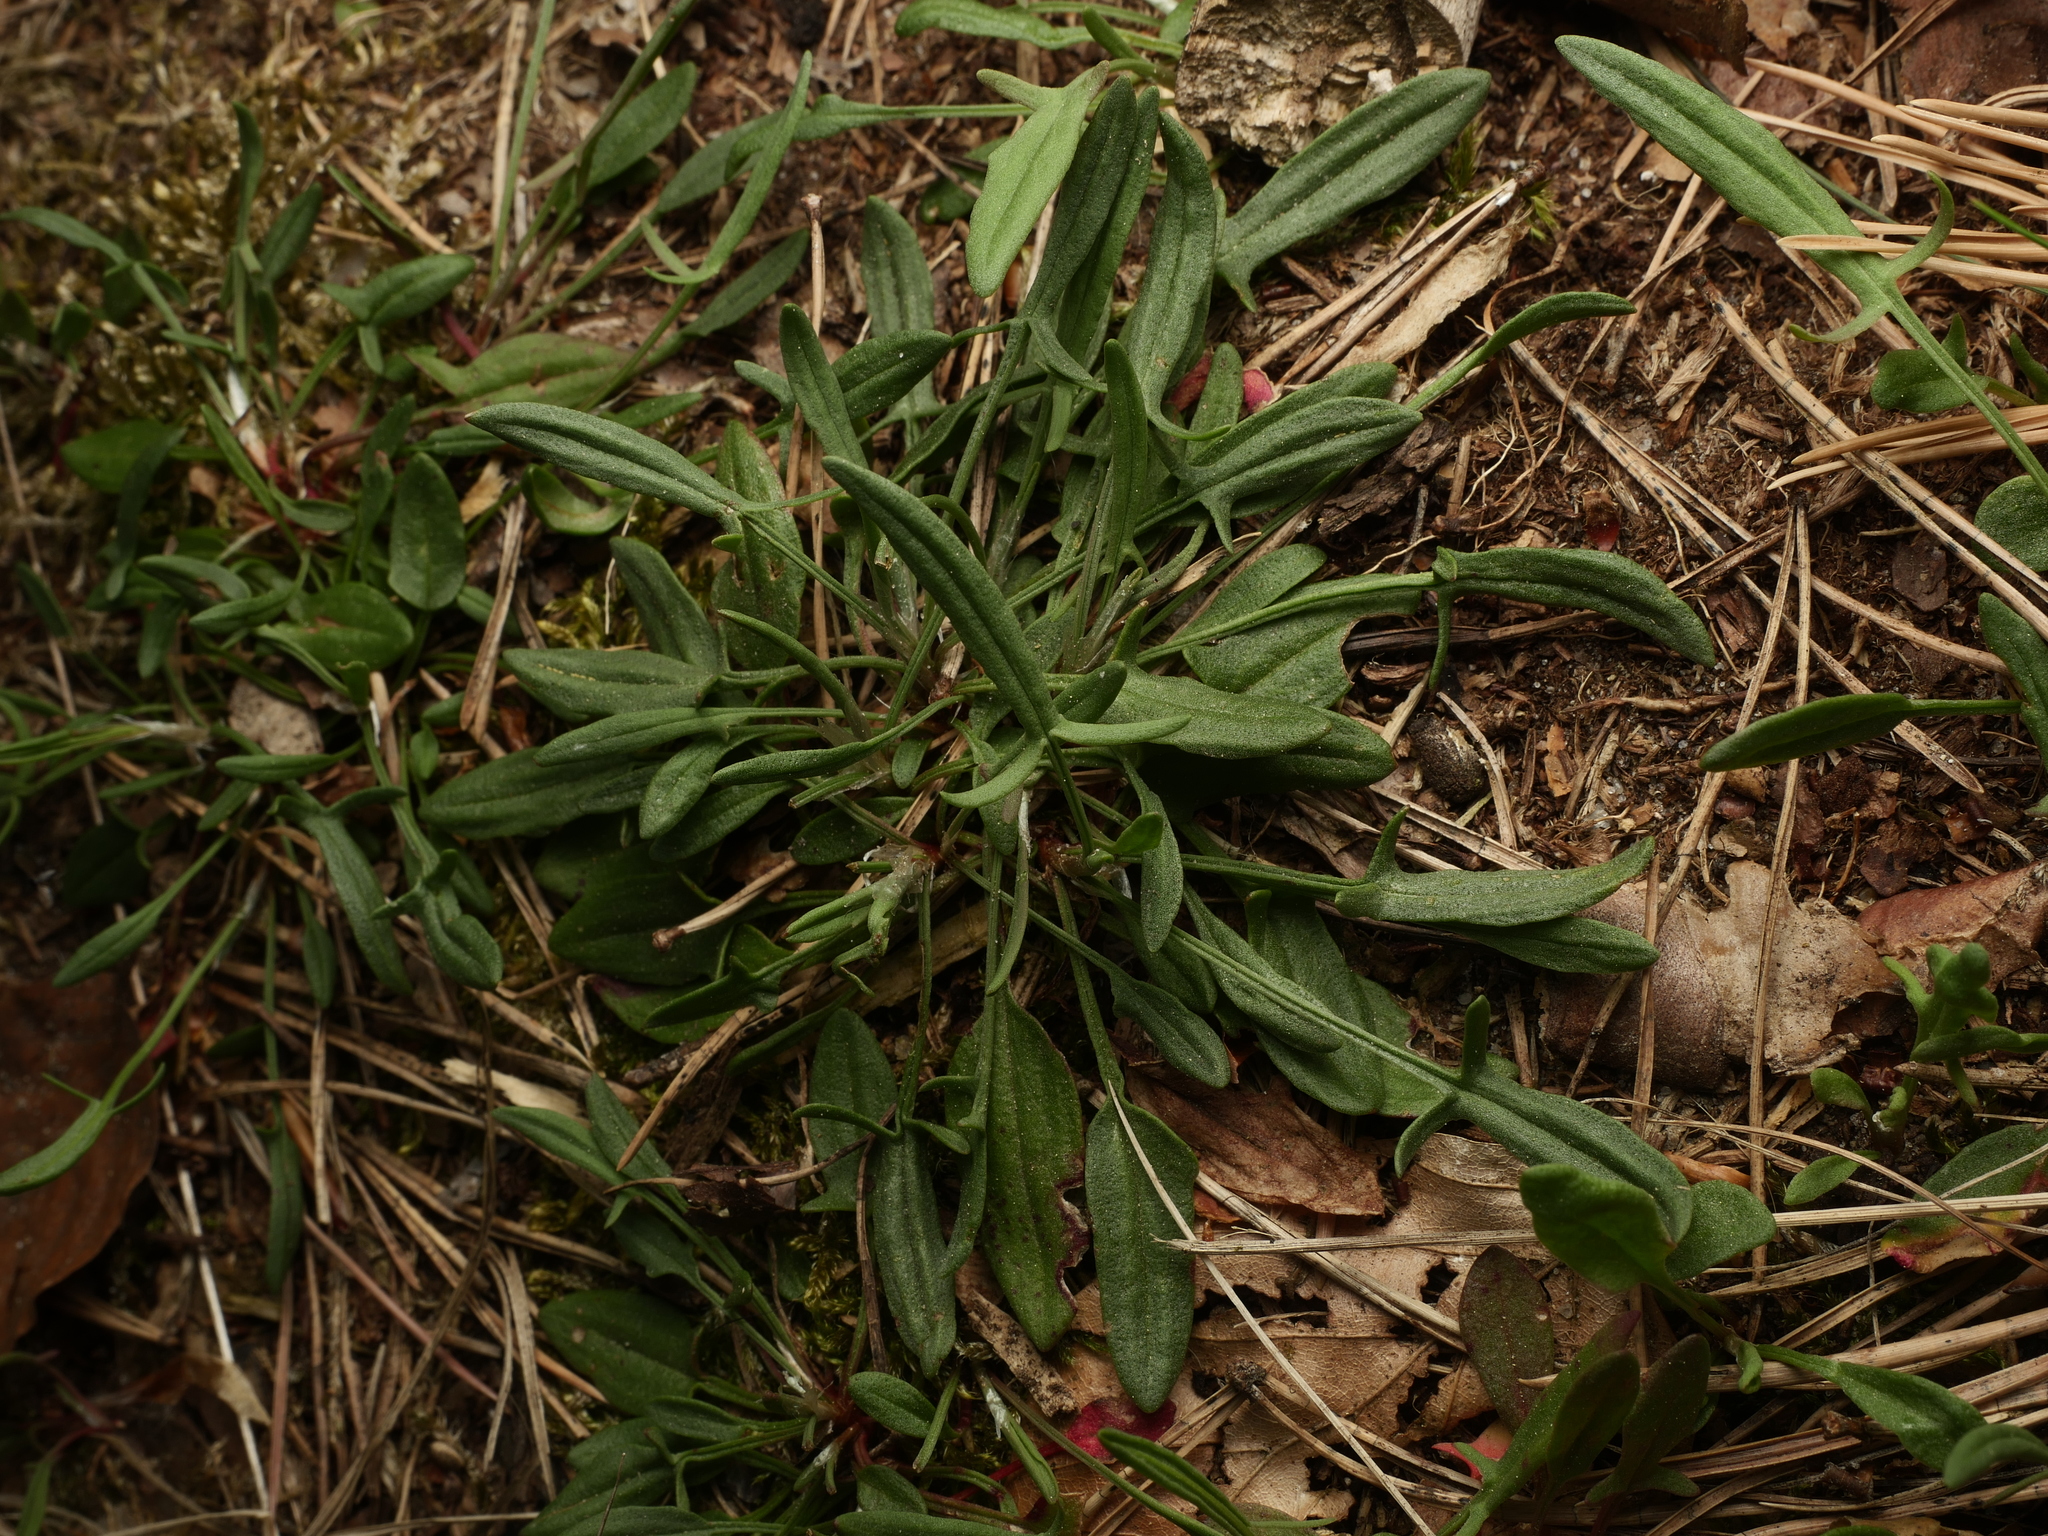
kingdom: Plantae
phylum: Tracheophyta
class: Magnoliopsida
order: Caryophyllales
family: Polygonaceae
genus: Rumex
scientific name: Rumex acetosella
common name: Common sheep sorrel
